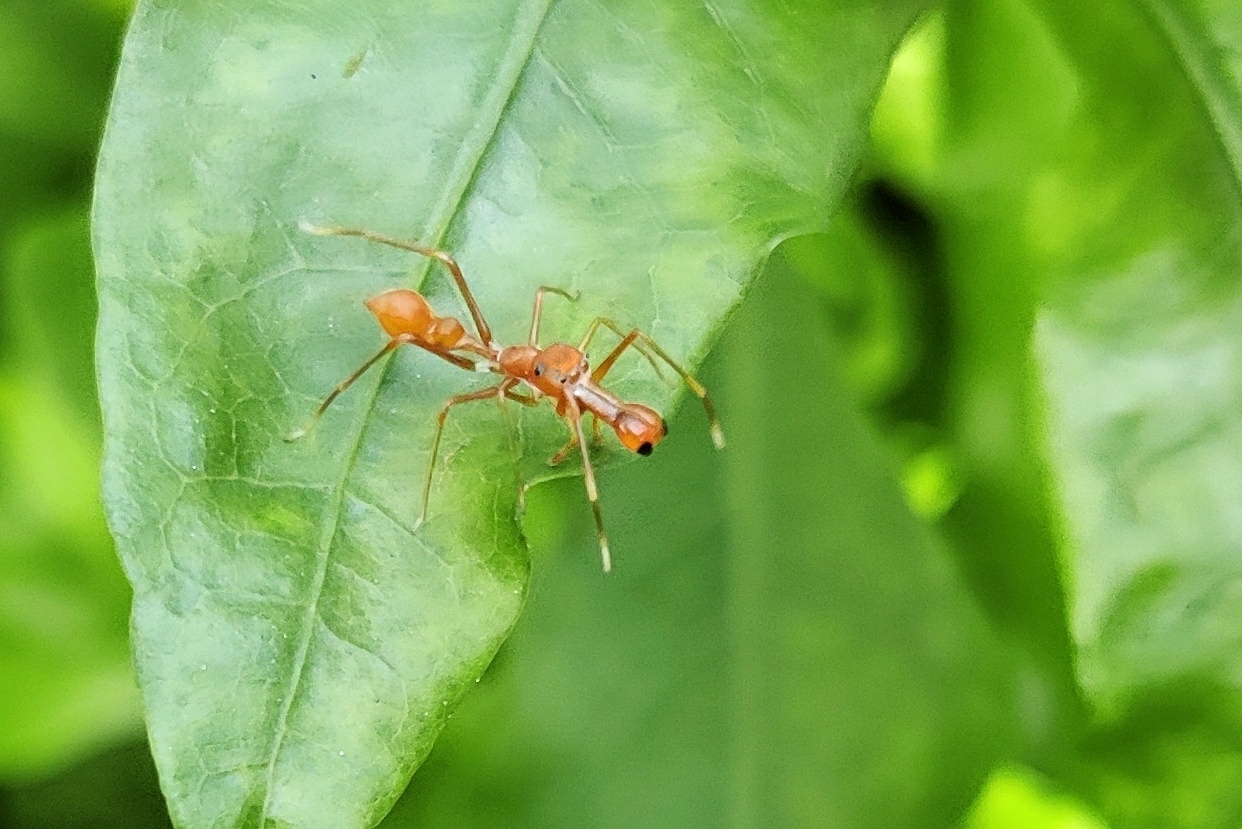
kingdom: Animalia
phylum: Arthropoda
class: Arachnida
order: Araneae
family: Salticidae
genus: Myrmaplata
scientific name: Myrmaplata plataleoides
